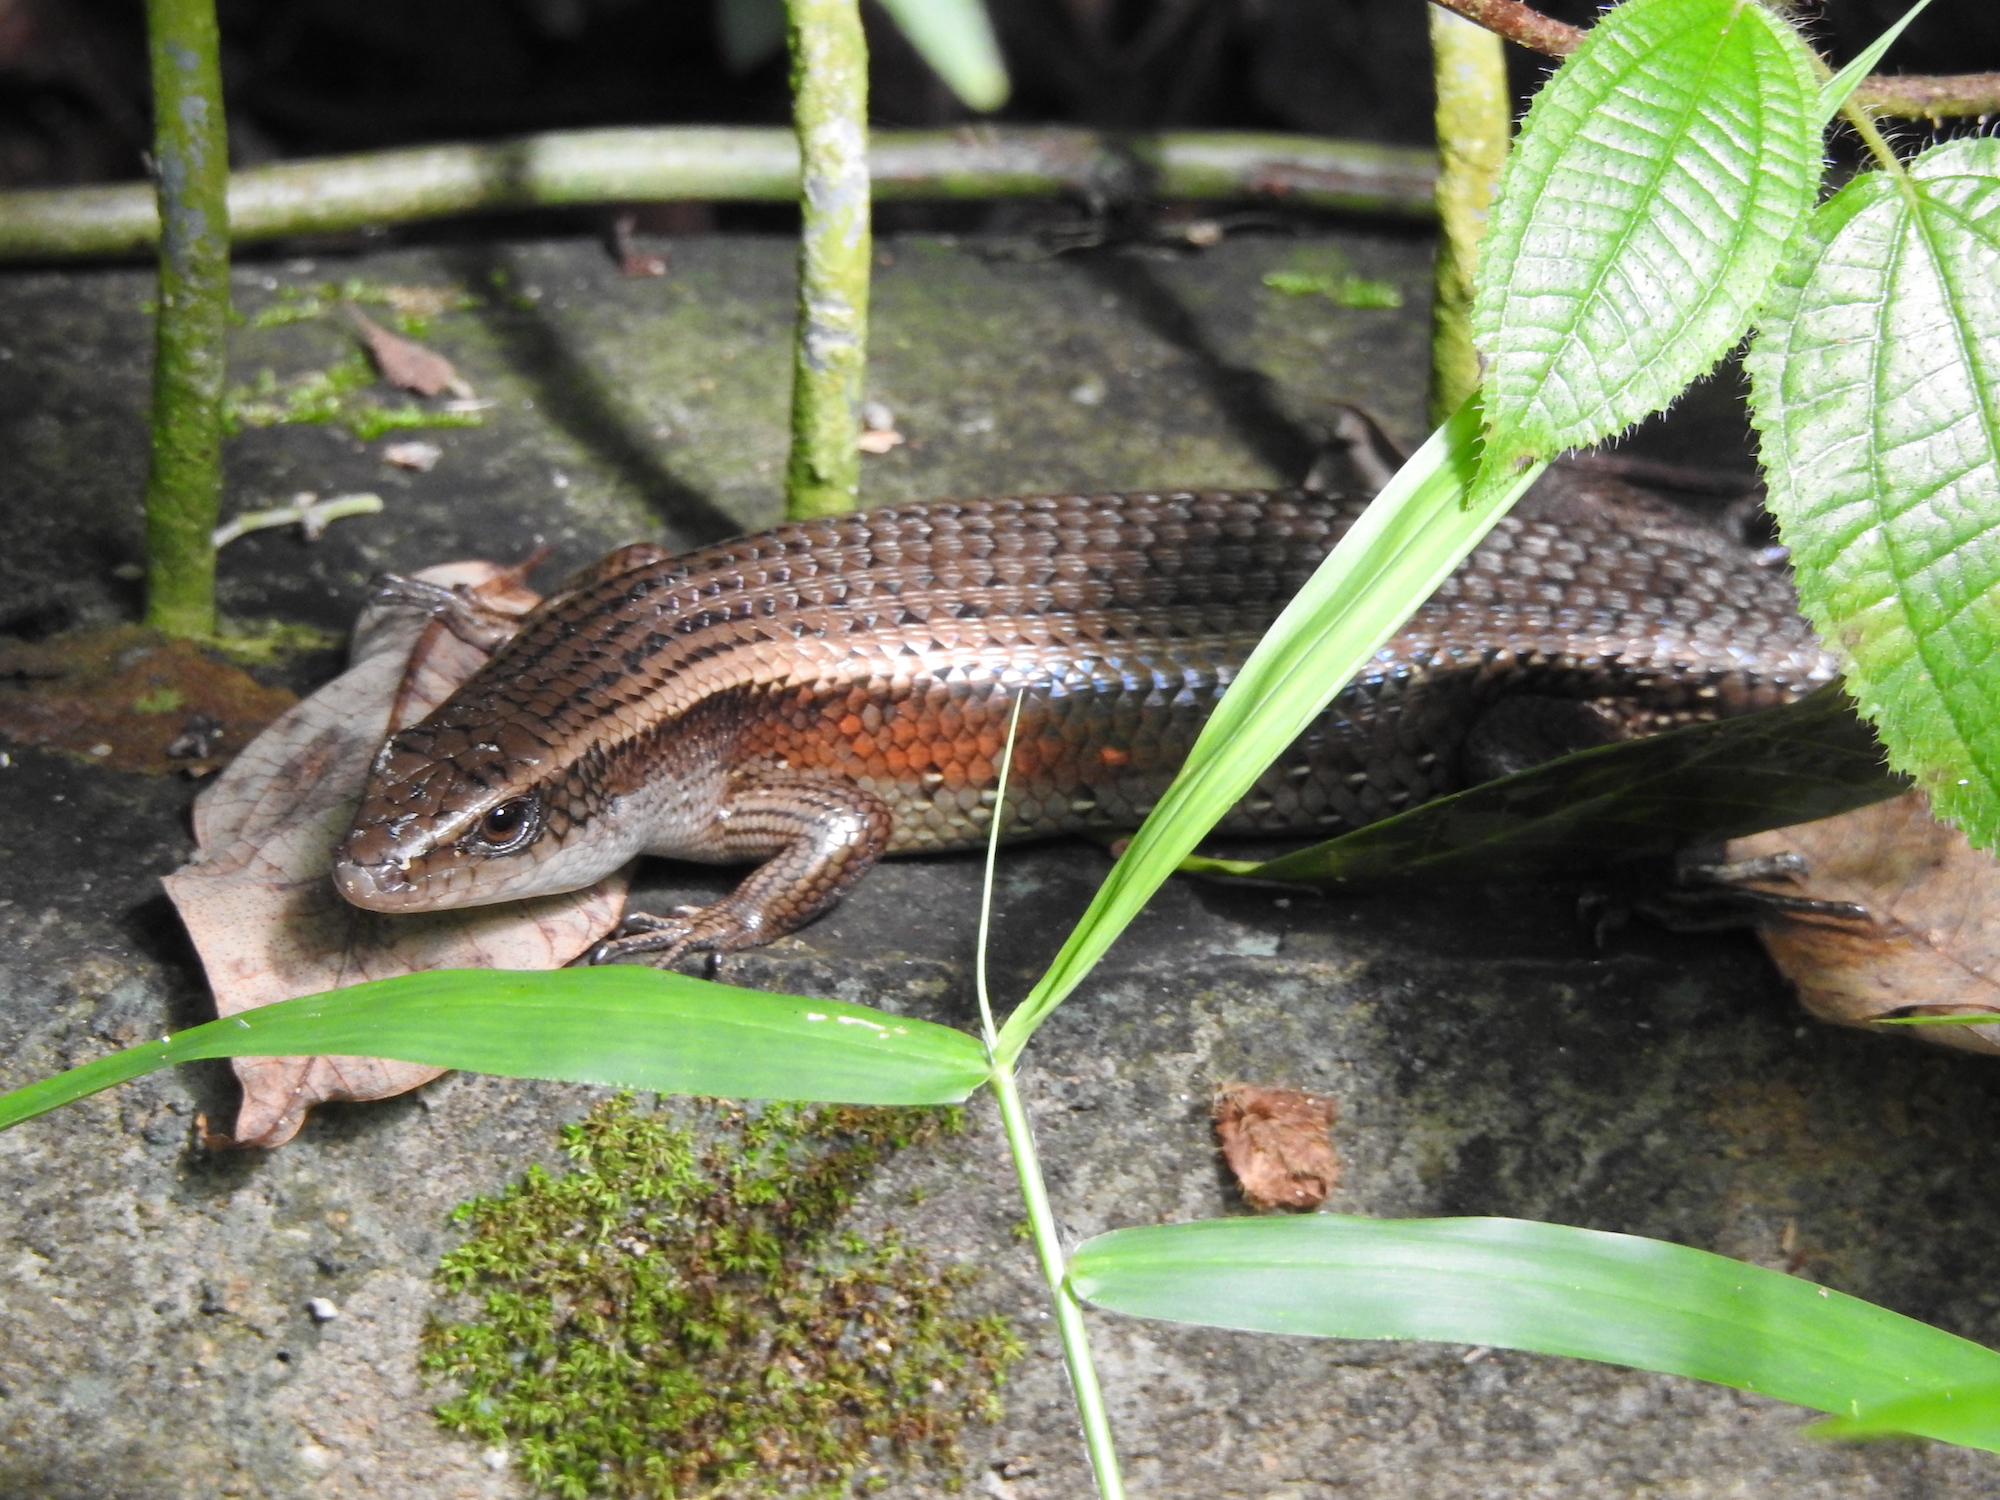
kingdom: Animalia
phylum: Chordata
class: Squamata
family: Scincidae
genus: Eutropis
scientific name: Eutropis multifasciata
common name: Common mabuya
